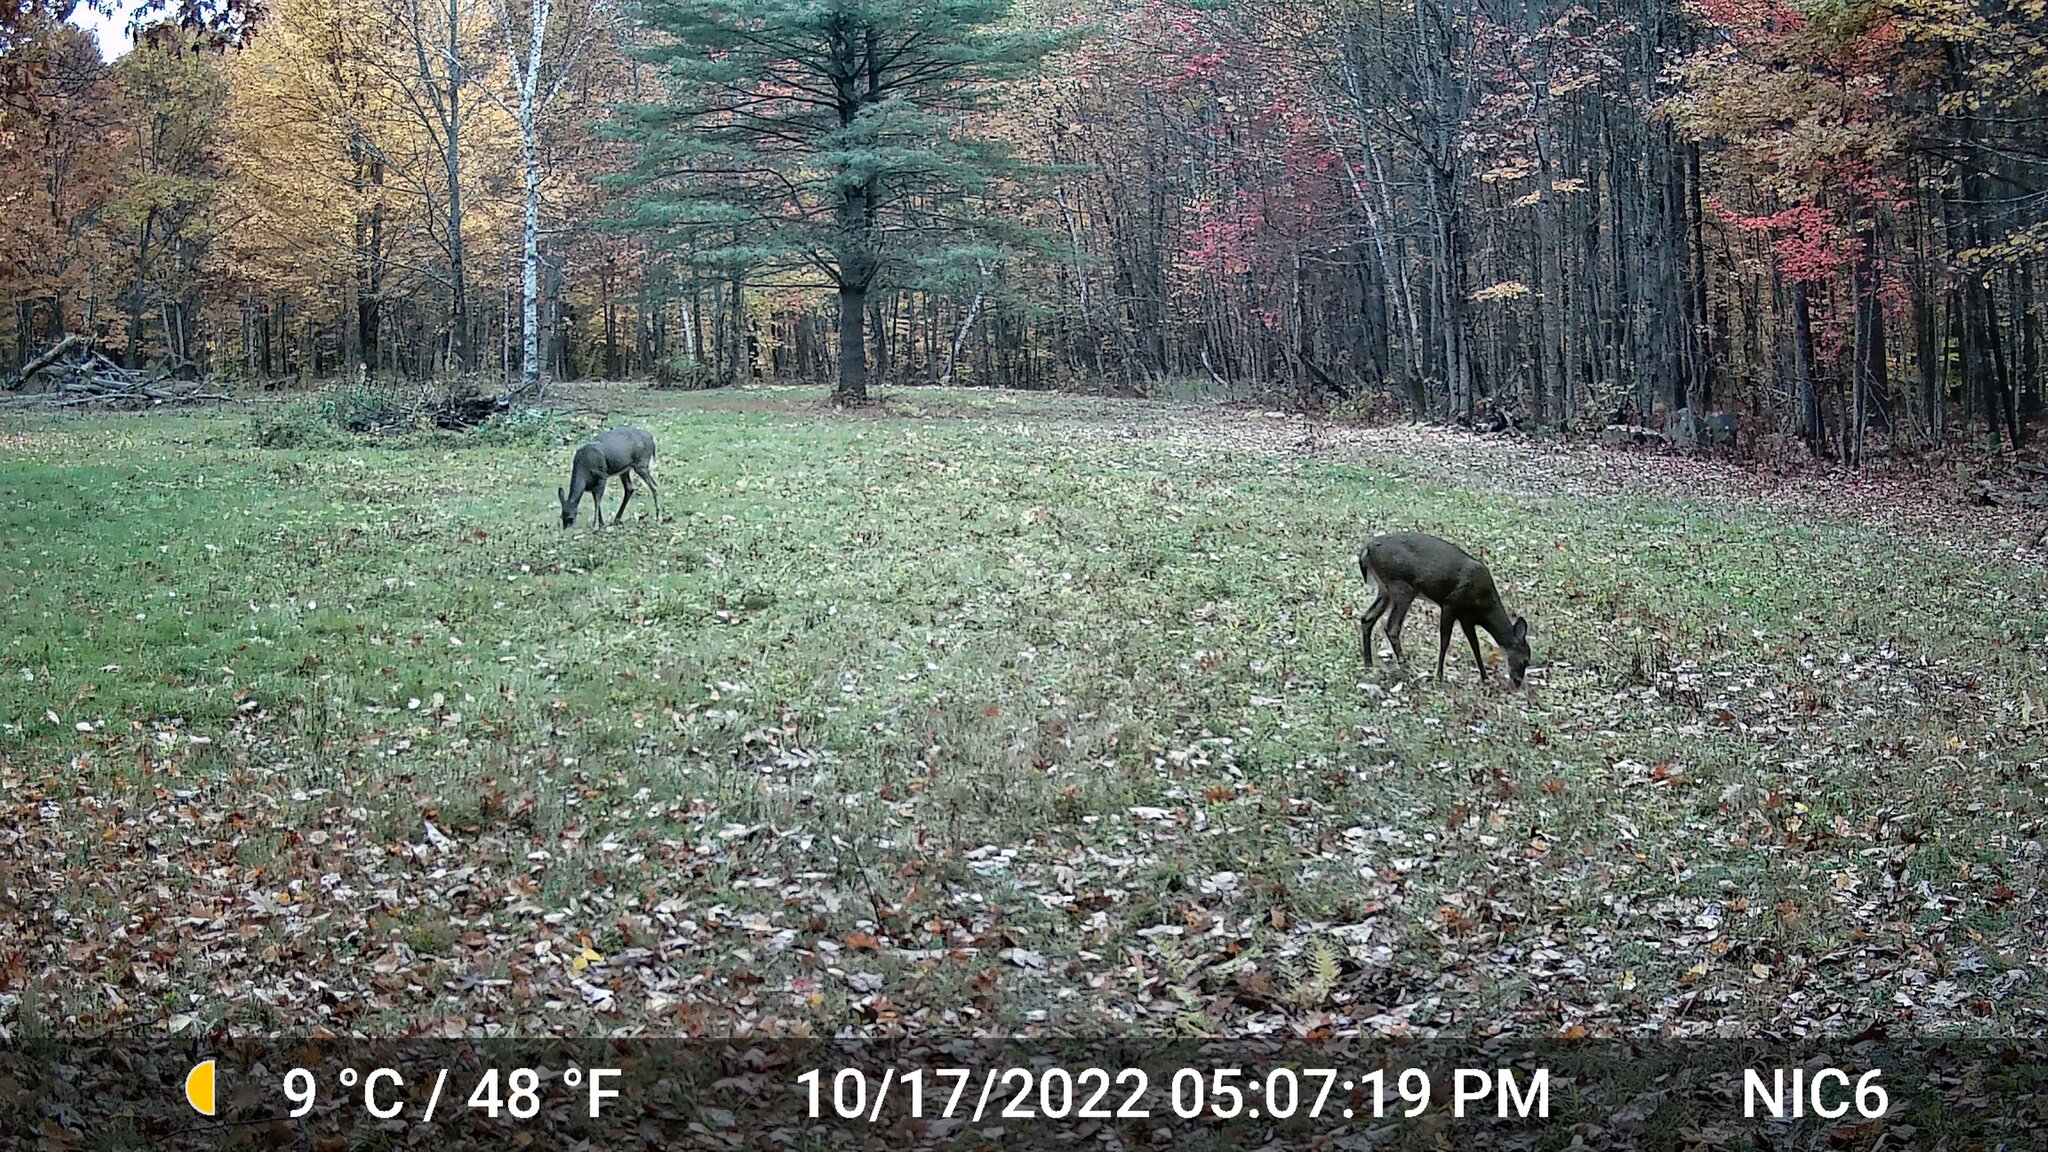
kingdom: Animalia
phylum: Chordata
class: Mammalia
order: Artiodactyla
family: Cervidae
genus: Odocoileus
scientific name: Odocoileus virginianus
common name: White-tailed deer
